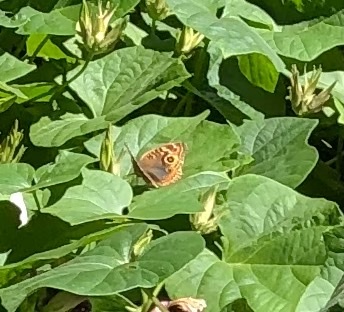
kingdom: Animalia
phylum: Arthropoda
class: Insecta
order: Lepidoptera
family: Nymphalidae
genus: Junonia
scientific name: Junonia lavinia
